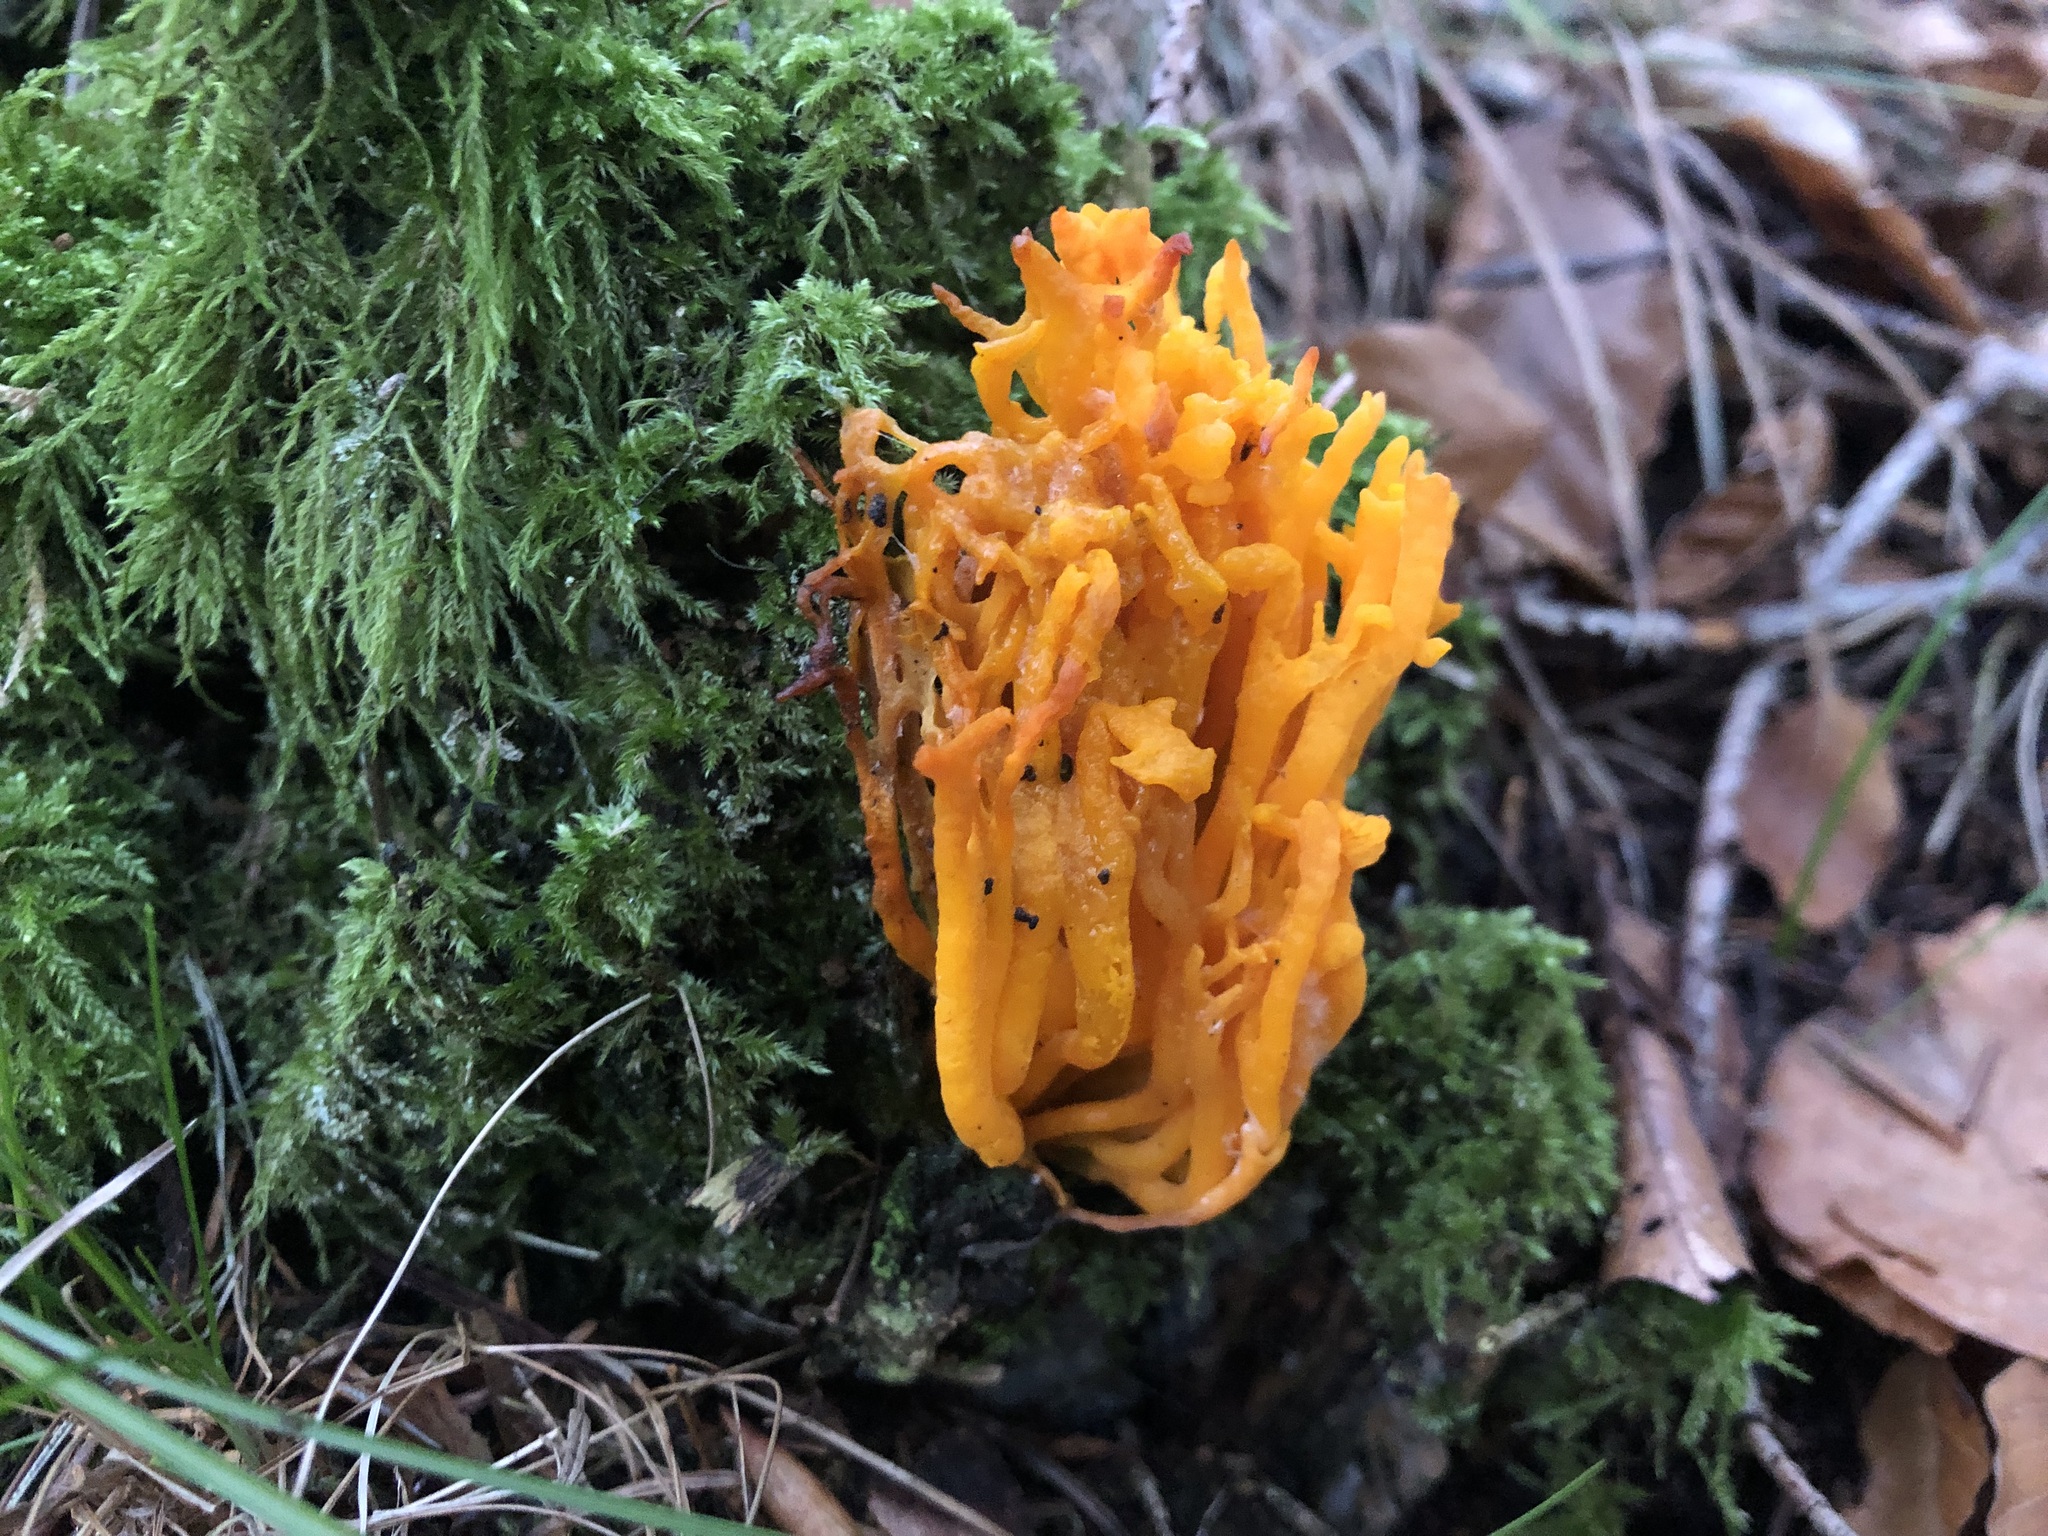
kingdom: Fungi
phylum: Basidiomycota
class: Dacrymycetes
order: Dacrymycetales
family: Dacrymycetaceae
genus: Calocera
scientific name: Calocera viscosa
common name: Yellow stagshorn
